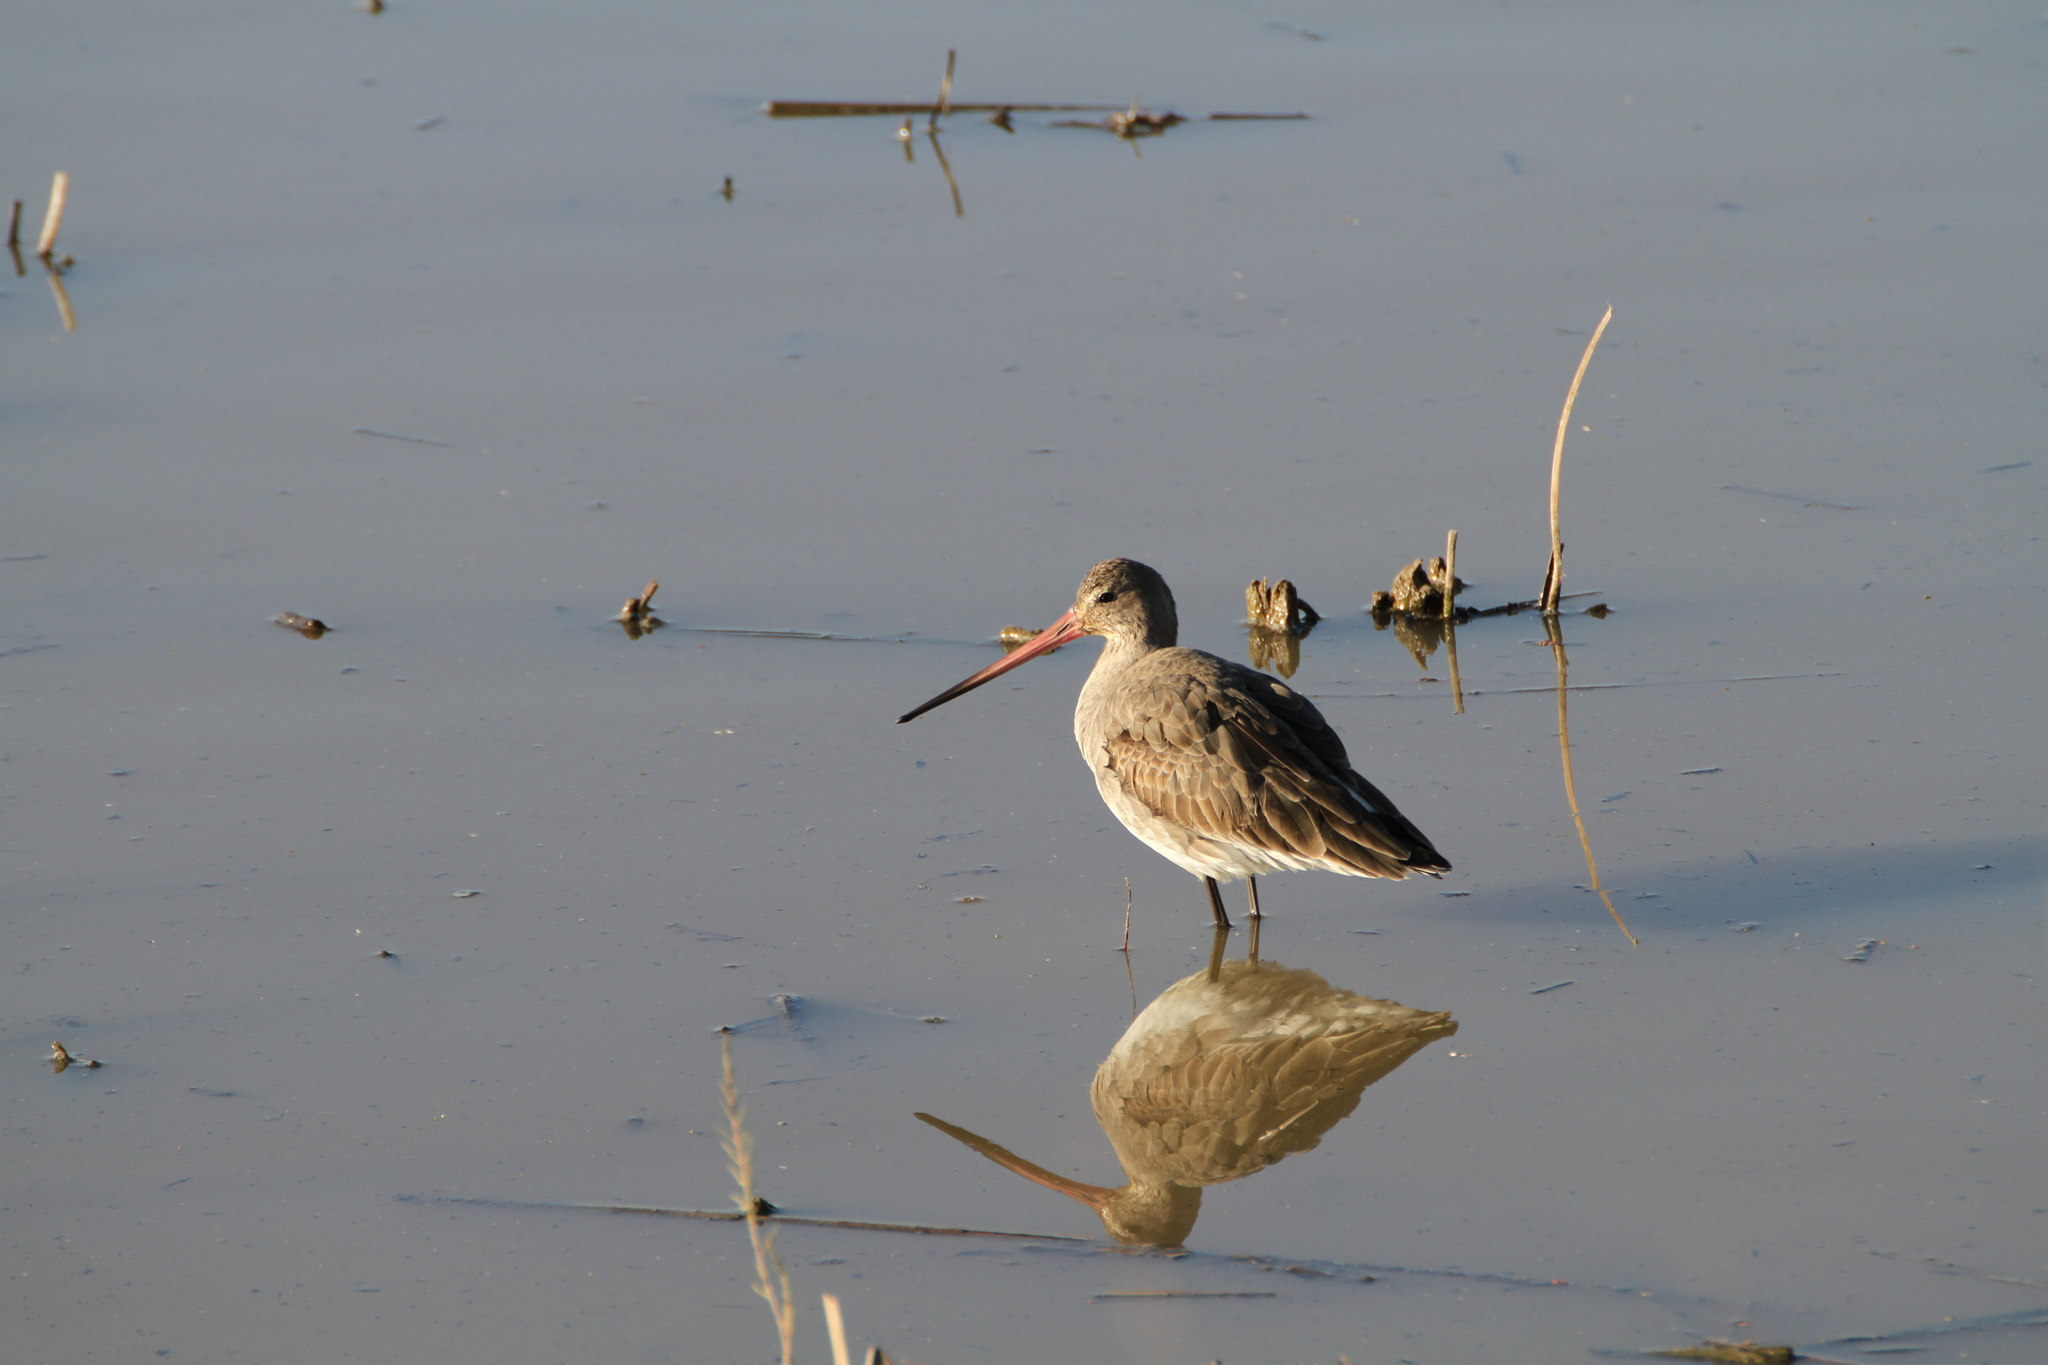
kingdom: Animalia
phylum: Chordata
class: Aves
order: Charadriiformes
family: Scolopacidae
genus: Limosa
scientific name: Limosa limosa
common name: Black-tailed godwit
